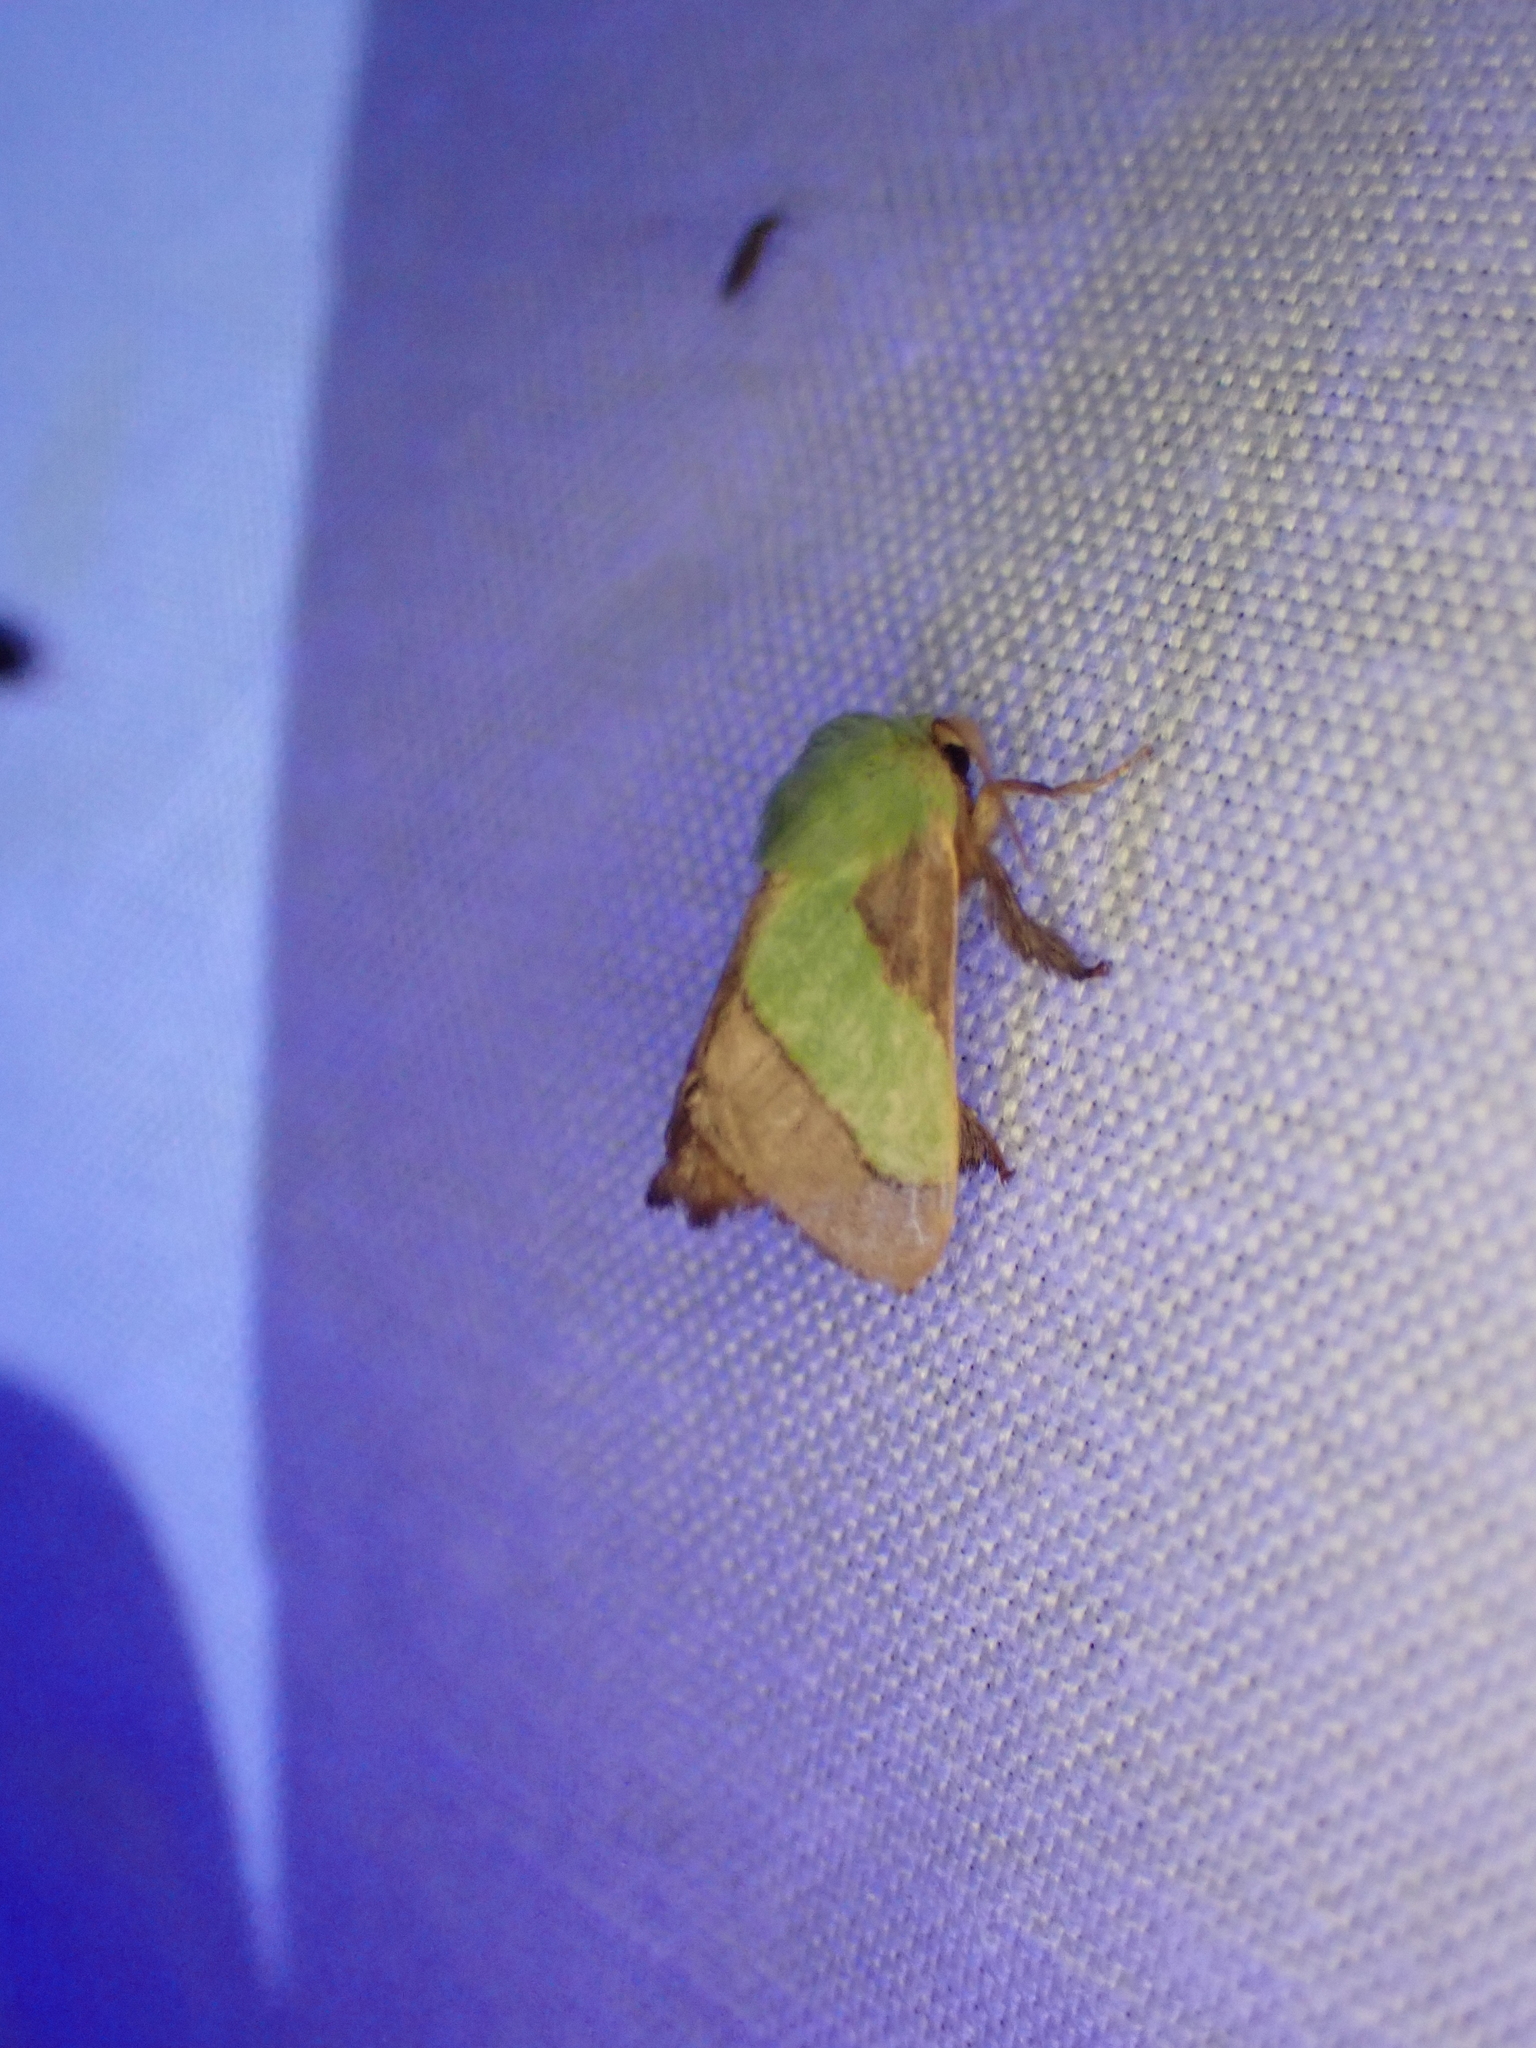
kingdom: Animalia
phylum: Arthropoda
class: Insecta
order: Lepidoptera
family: Limacodidae
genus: Parasa
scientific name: Parasa chloris
